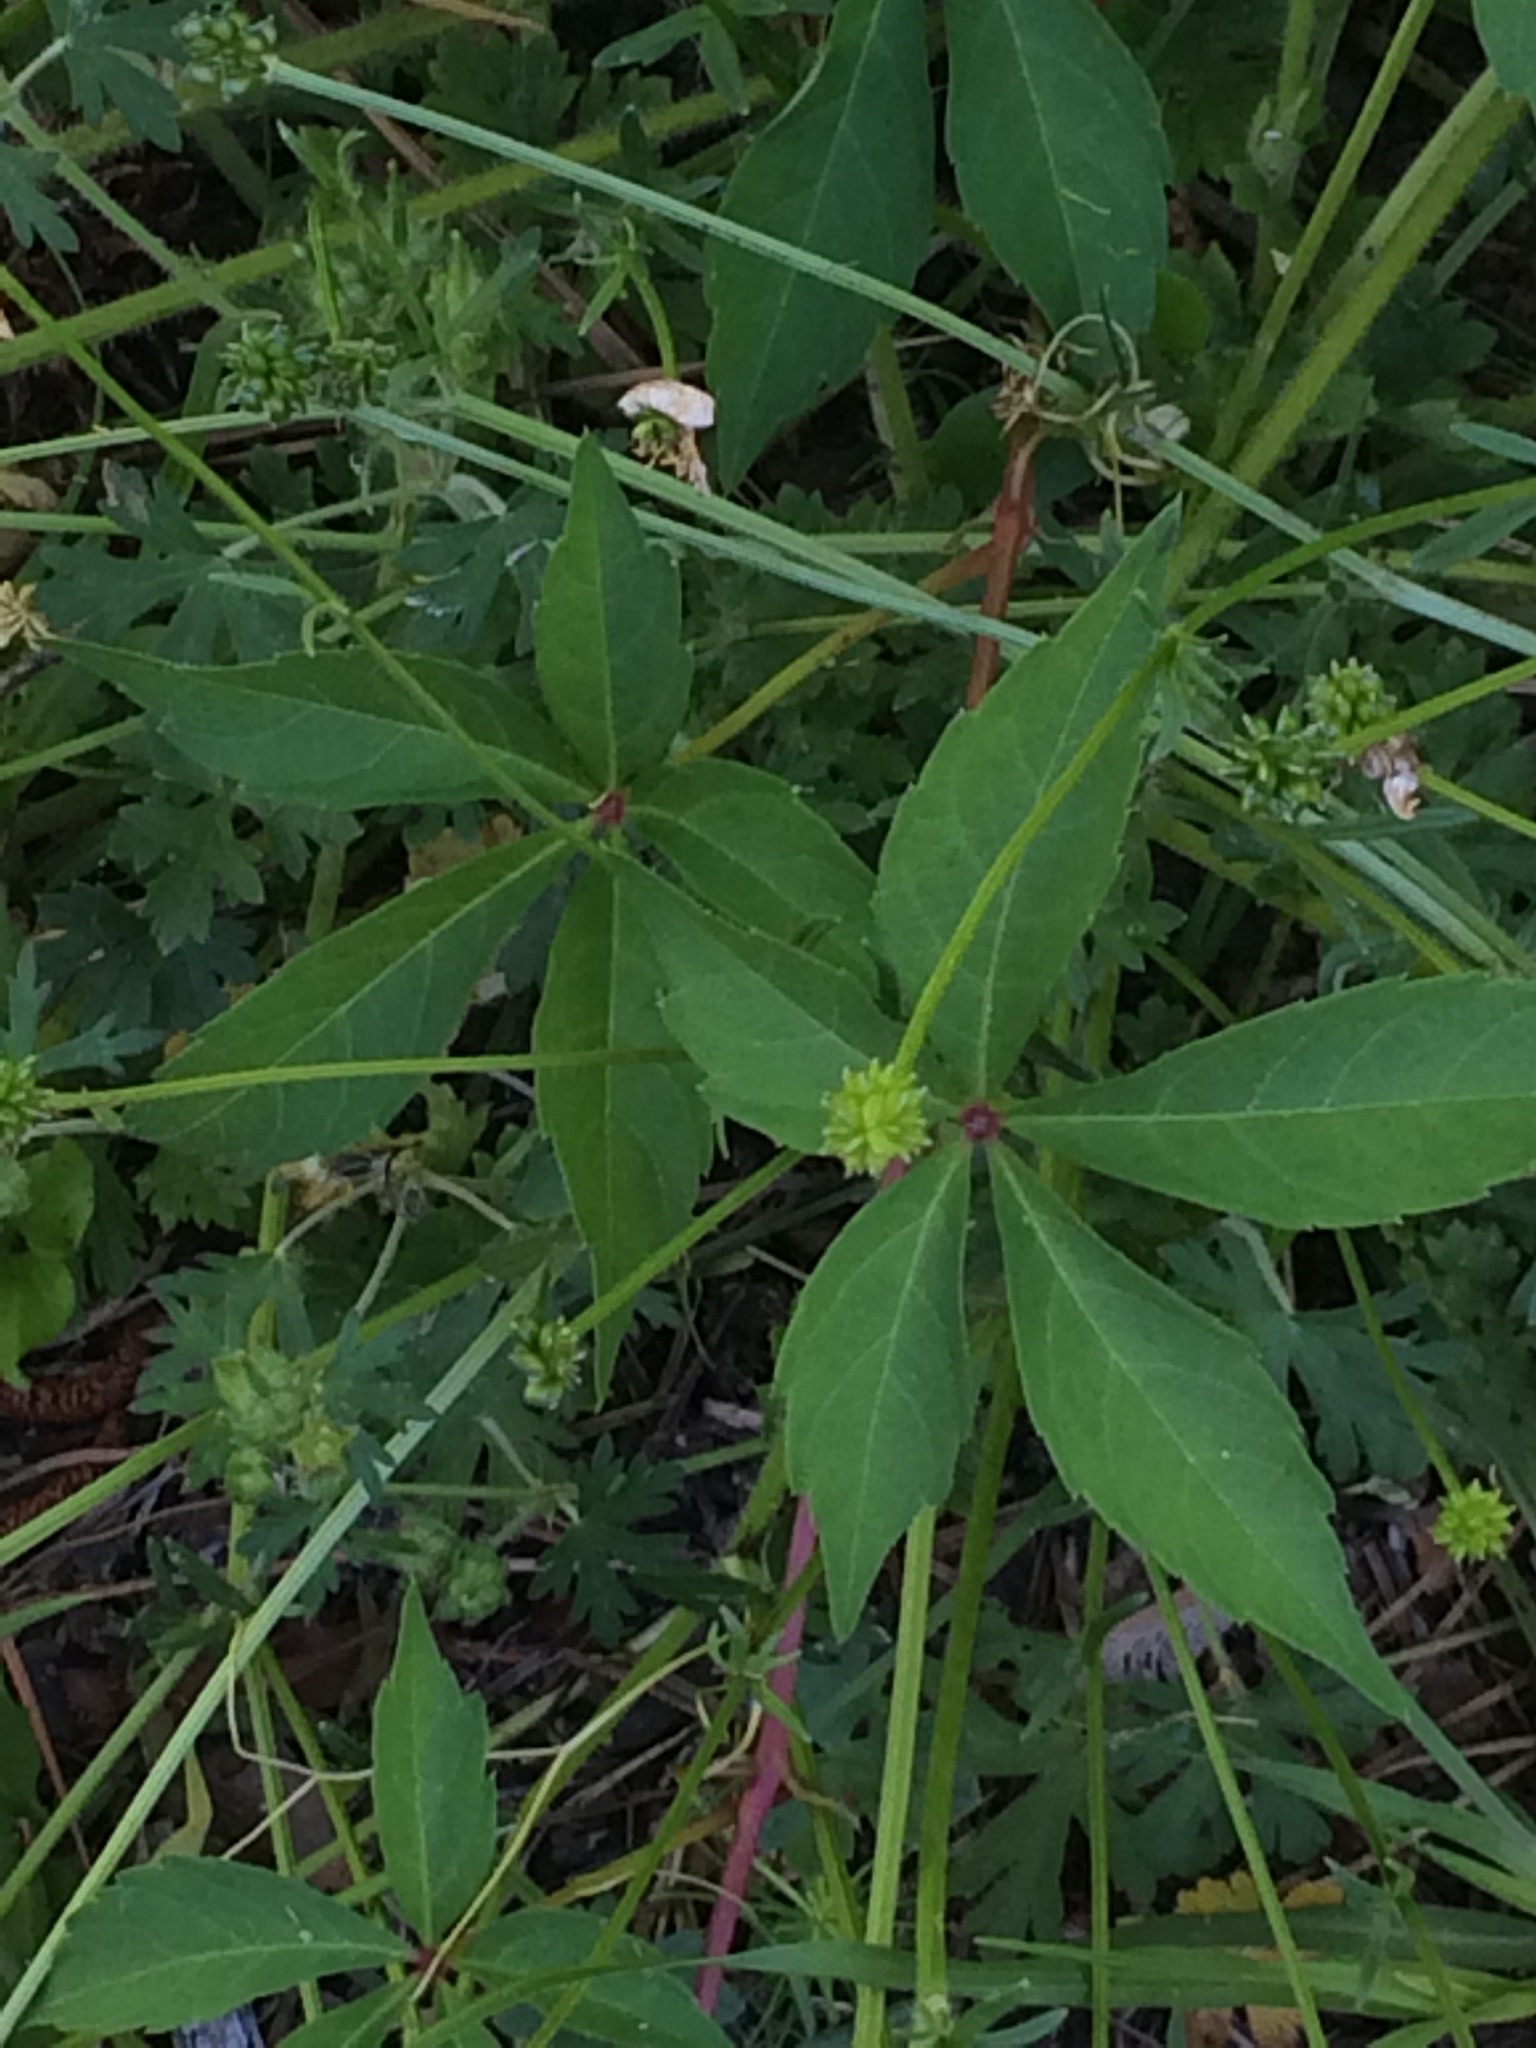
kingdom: Plantae
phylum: Tracheophyta
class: Magnoliopsida
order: Vitales
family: Vitaceae
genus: Parthenocissus
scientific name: Parthenocissus quinquefolia
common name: Virginia-creeper
